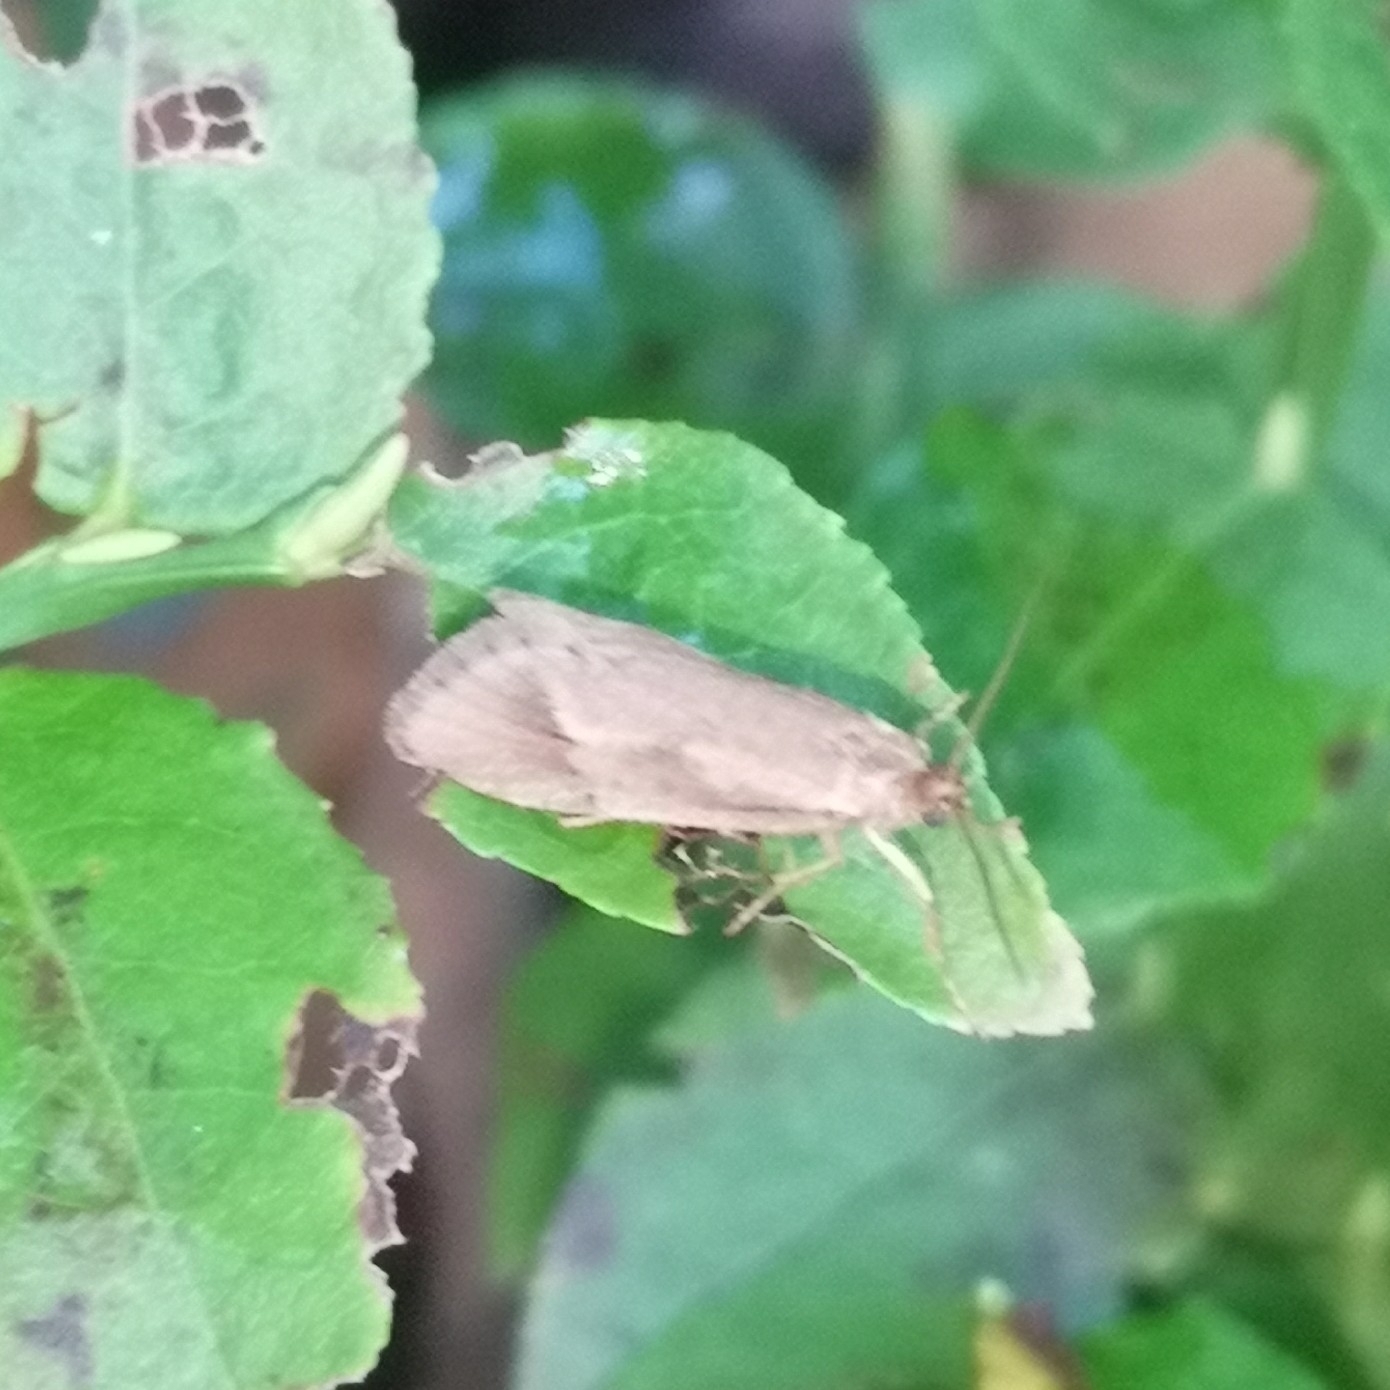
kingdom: Animalia
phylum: Arthropoda
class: Insecta
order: Lepidoptera
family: Lypusidae
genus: Diurnea
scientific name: Diurnea lipsiella
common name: November tubic
